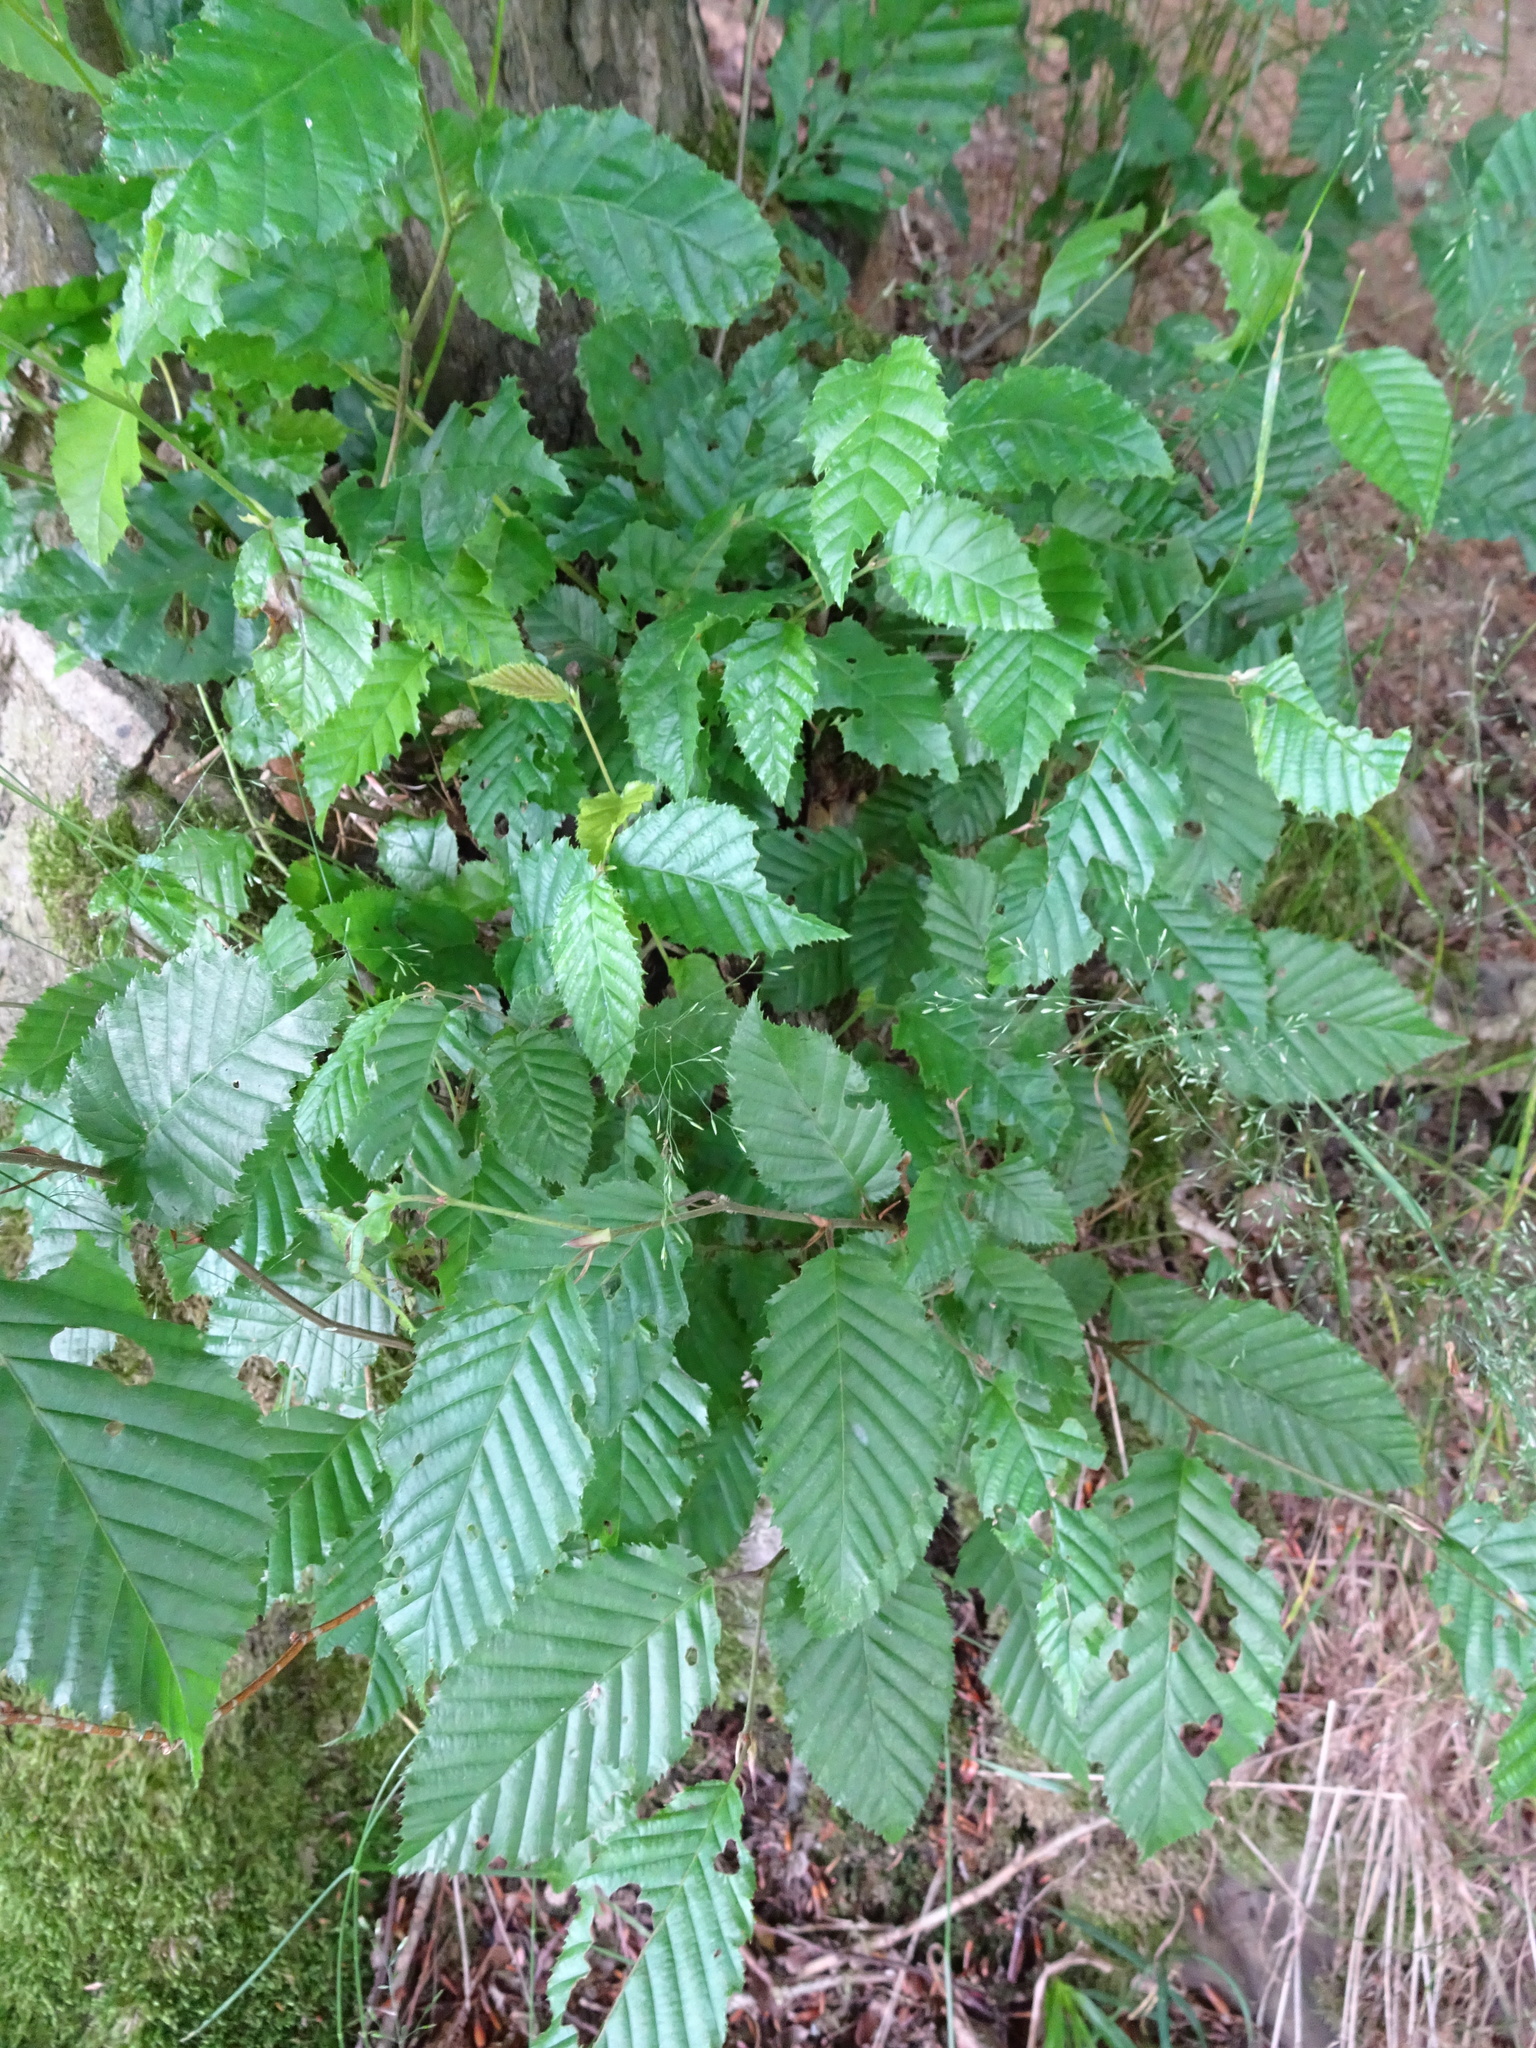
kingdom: Plantae
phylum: Tracheophyta
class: Magnoliopsida
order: Fagales
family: Betulaceae
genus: Carpinus
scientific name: Carpinus betulus
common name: Hornbeam
